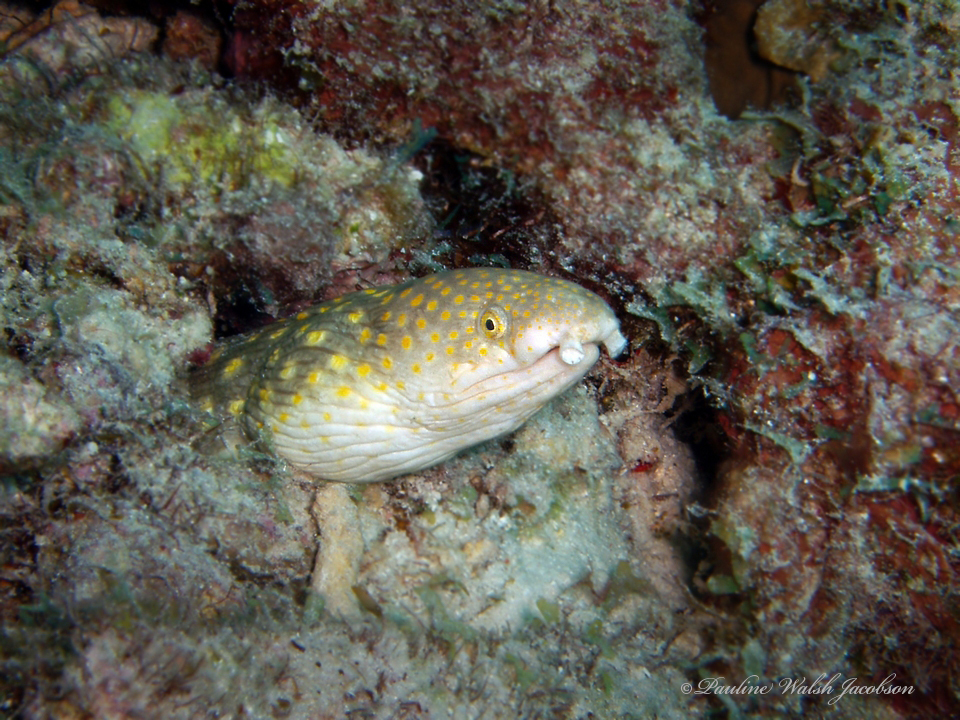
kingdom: Animalia
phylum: Chordata
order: Anguilliformes
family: Ophichthidae
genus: Myrichthys
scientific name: Myrichthys breviceps
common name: Sharptail eel
